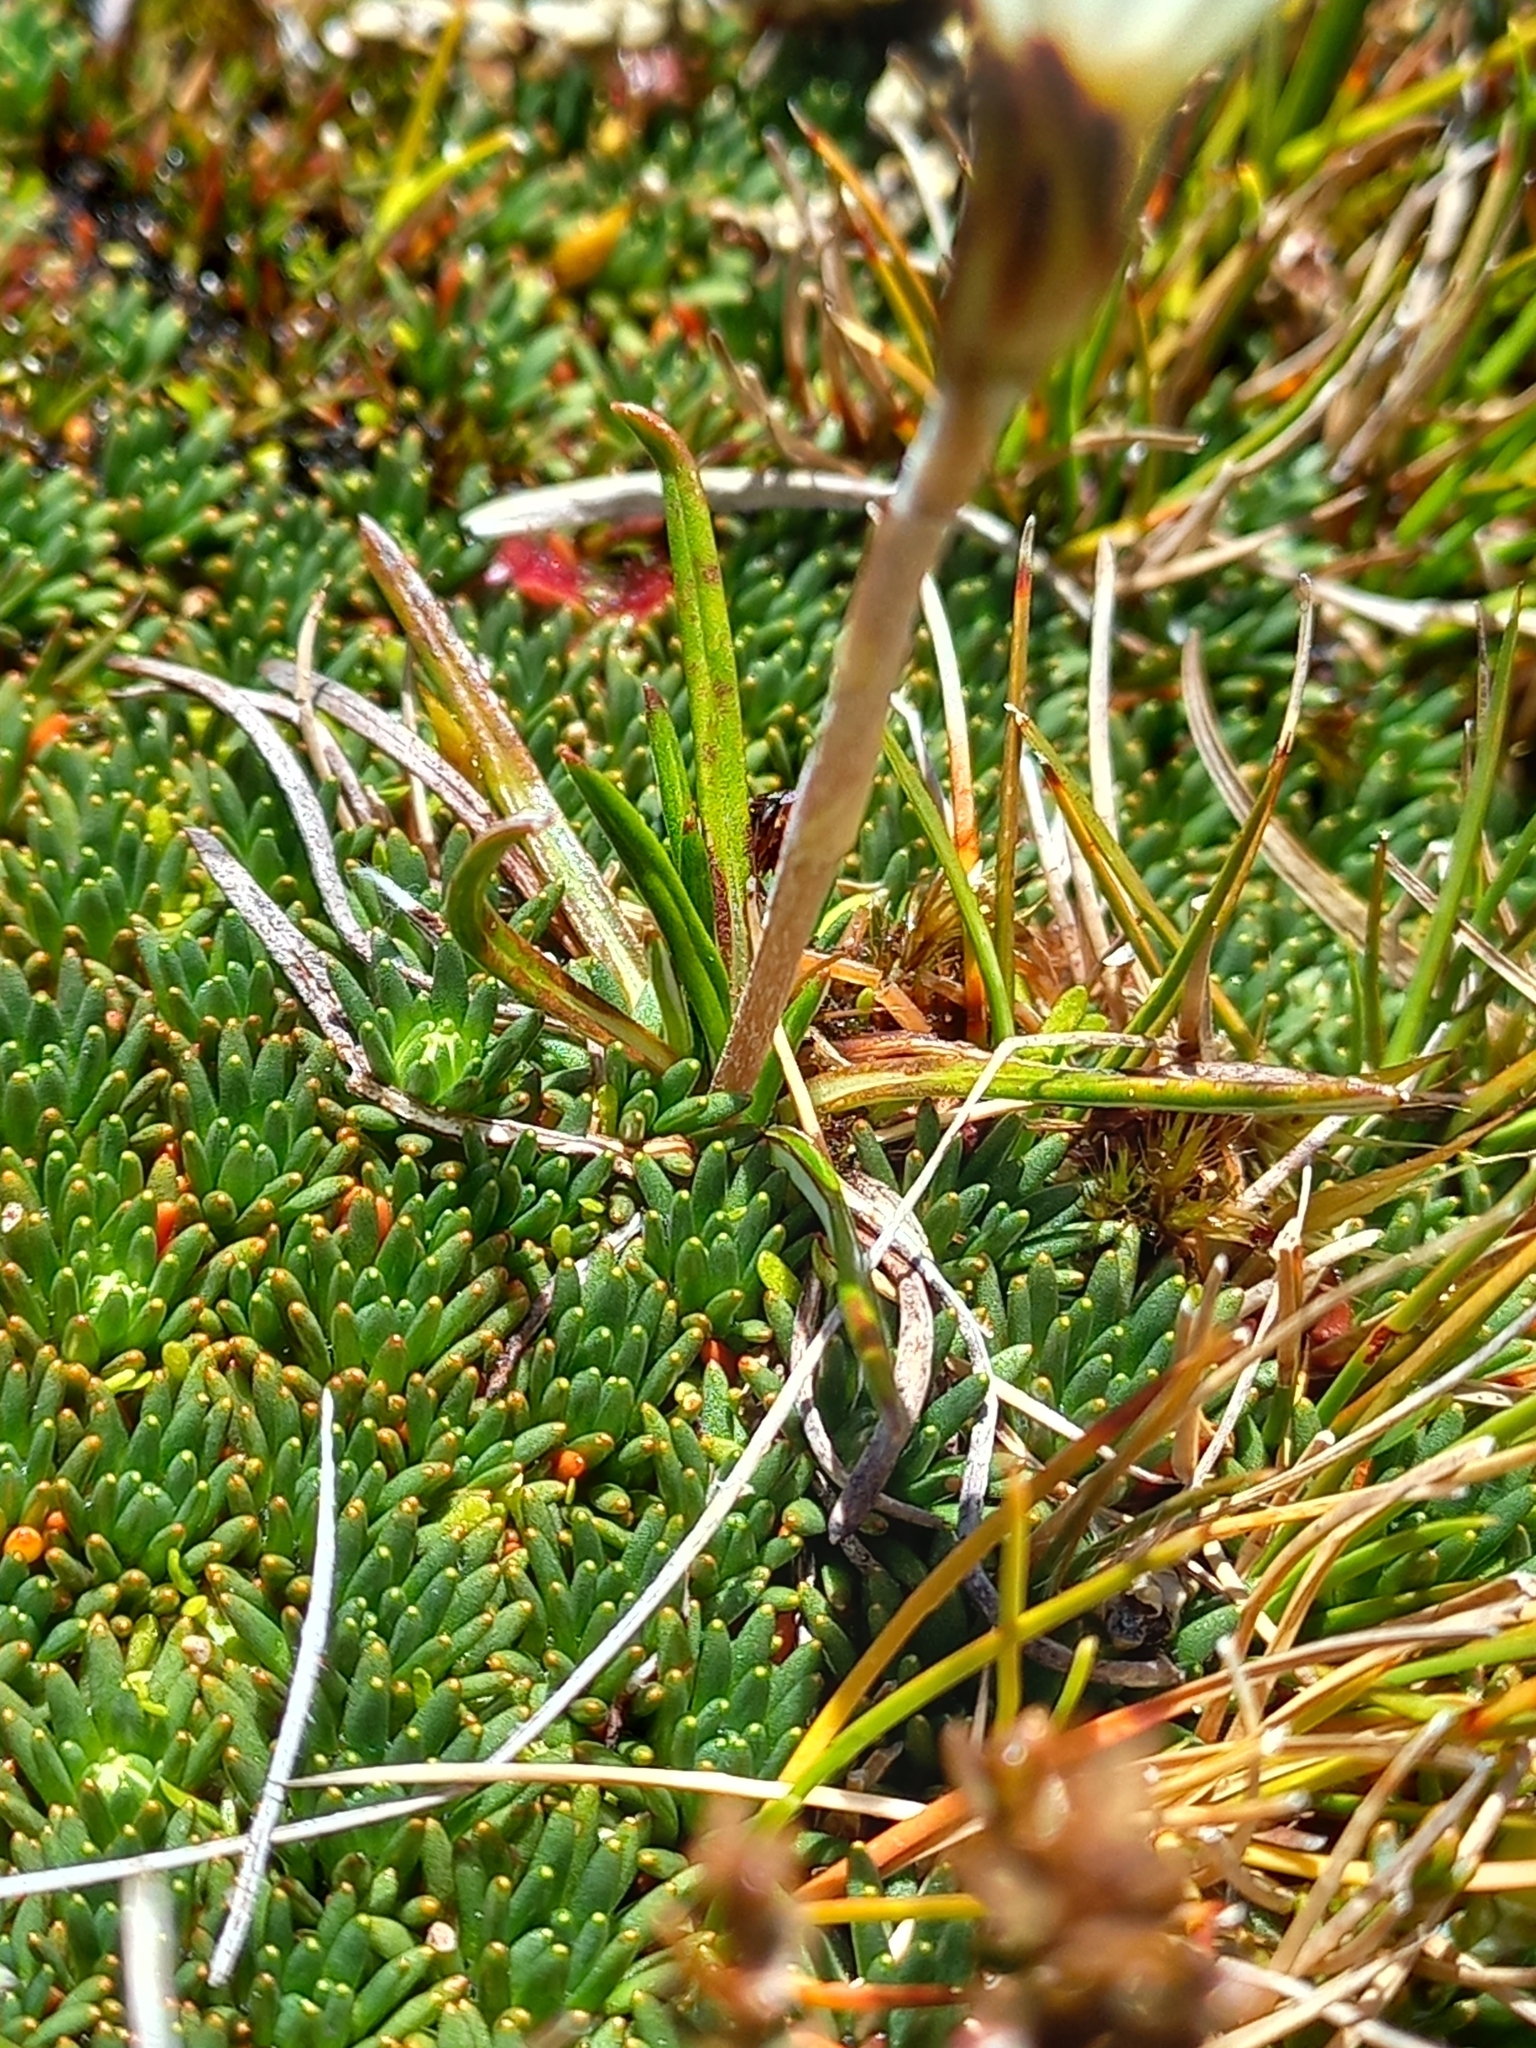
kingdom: Plantae
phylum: Tracheophyta
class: Magnoliopsida
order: Asterales
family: Asteraceae
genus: Celmisia
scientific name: Celmisia alpina
